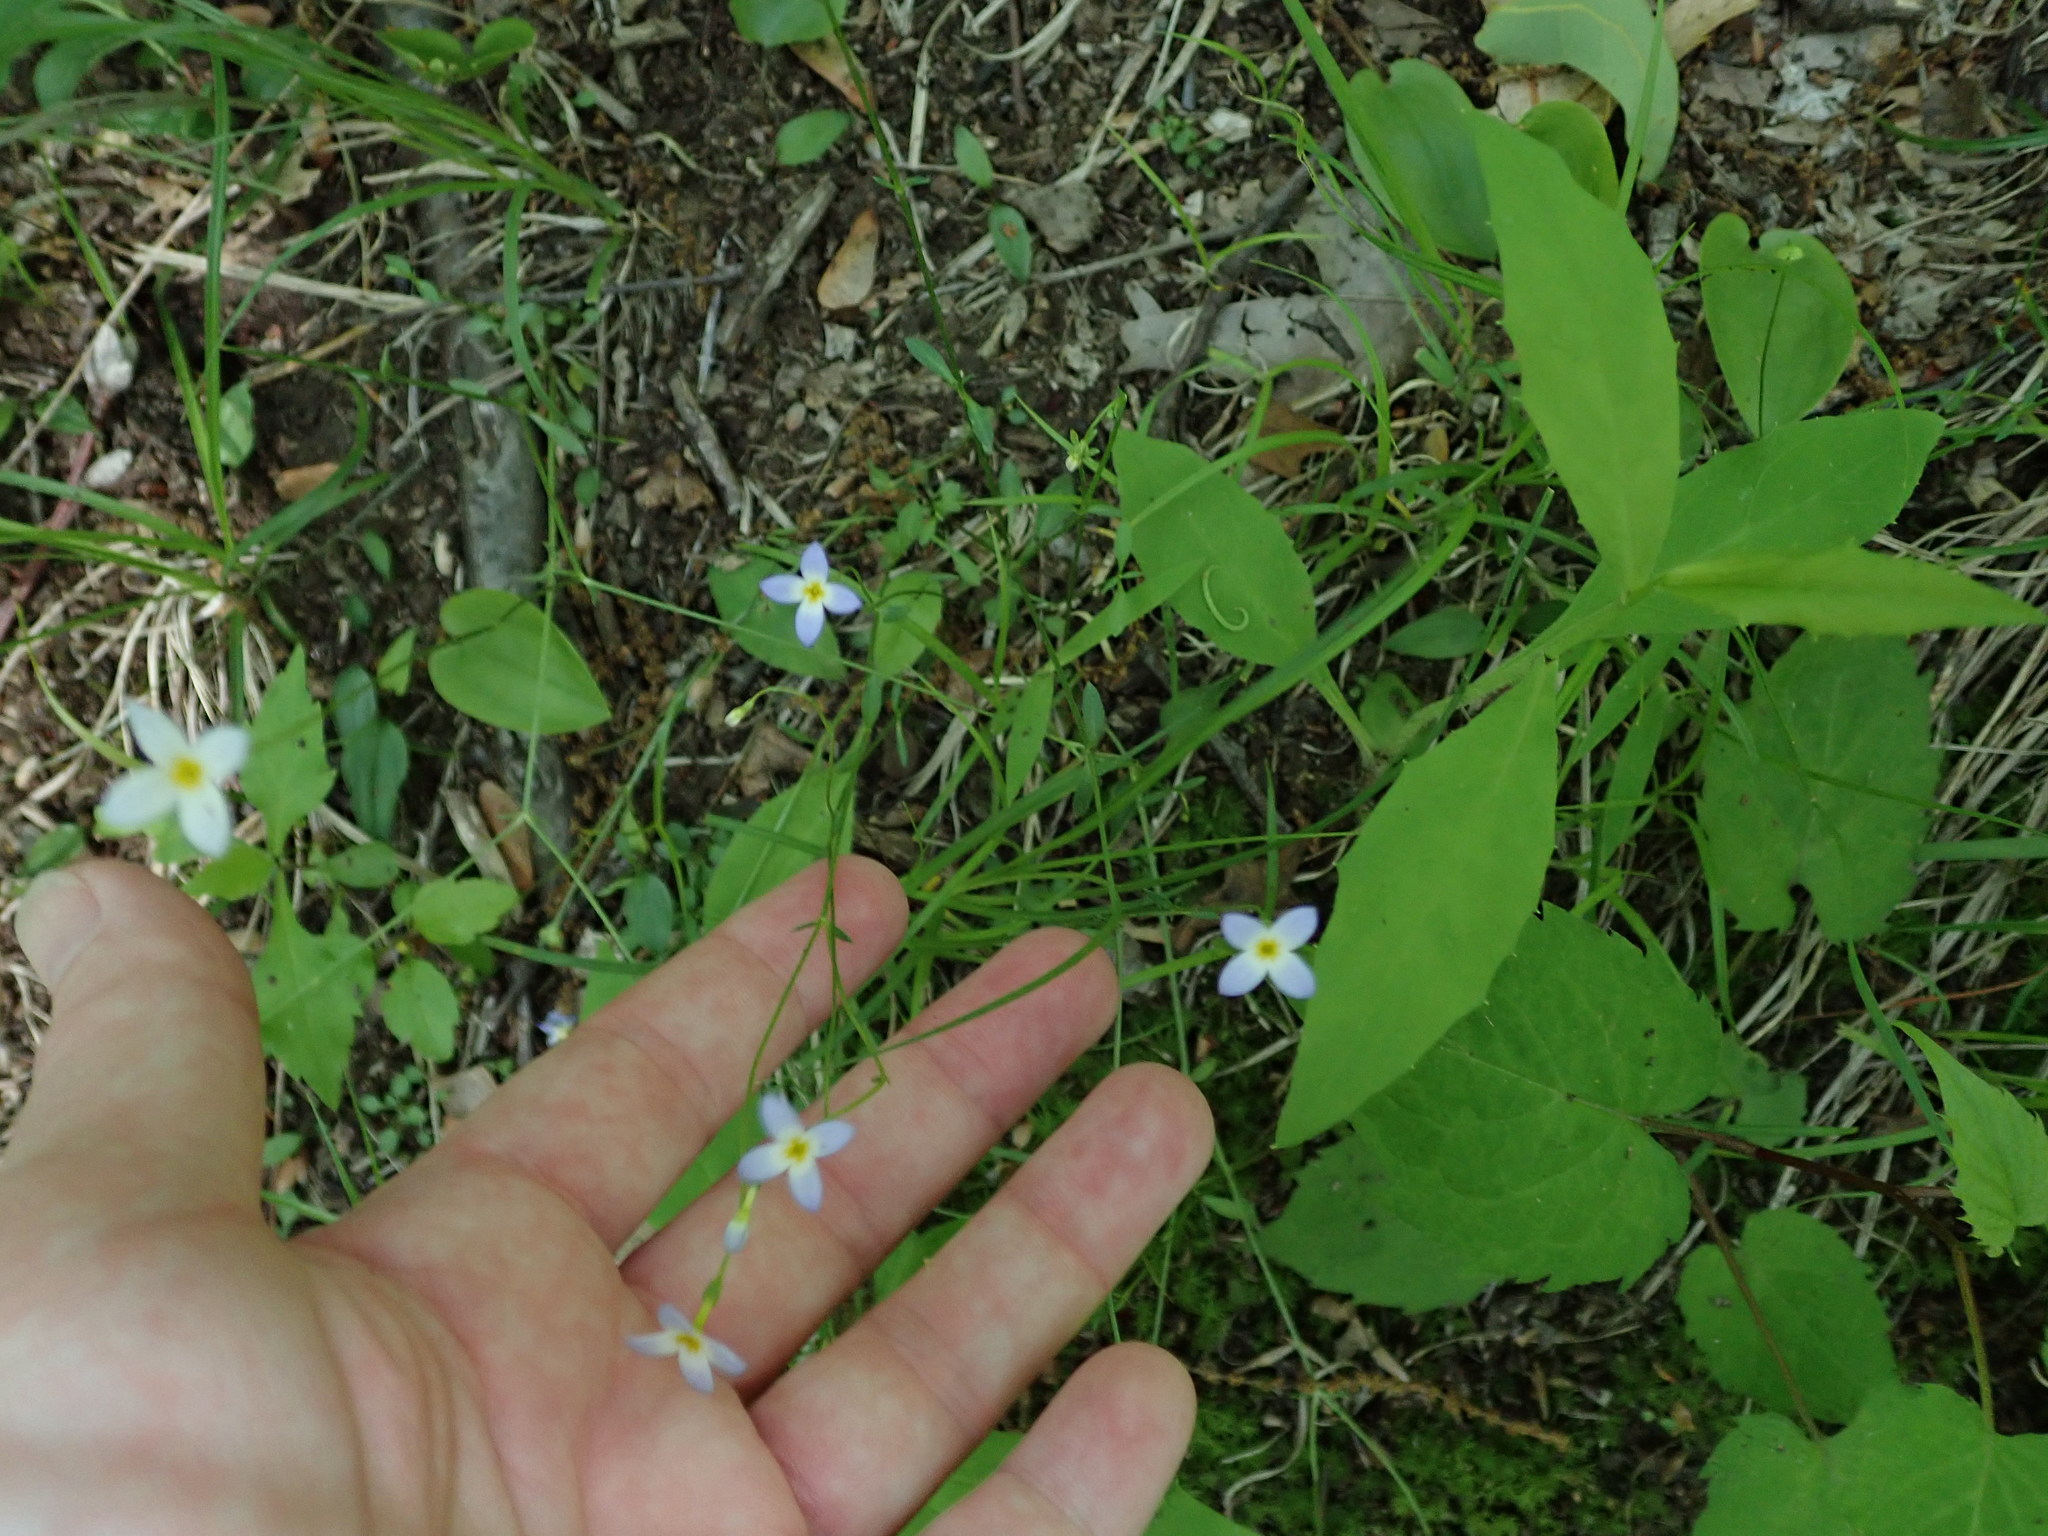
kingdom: Plantae
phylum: Tracheophyta
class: Magnoliopsida
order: Gentianales
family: Rubiaceae
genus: Houstonia
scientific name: Houstonia caerulea
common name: Bluets
